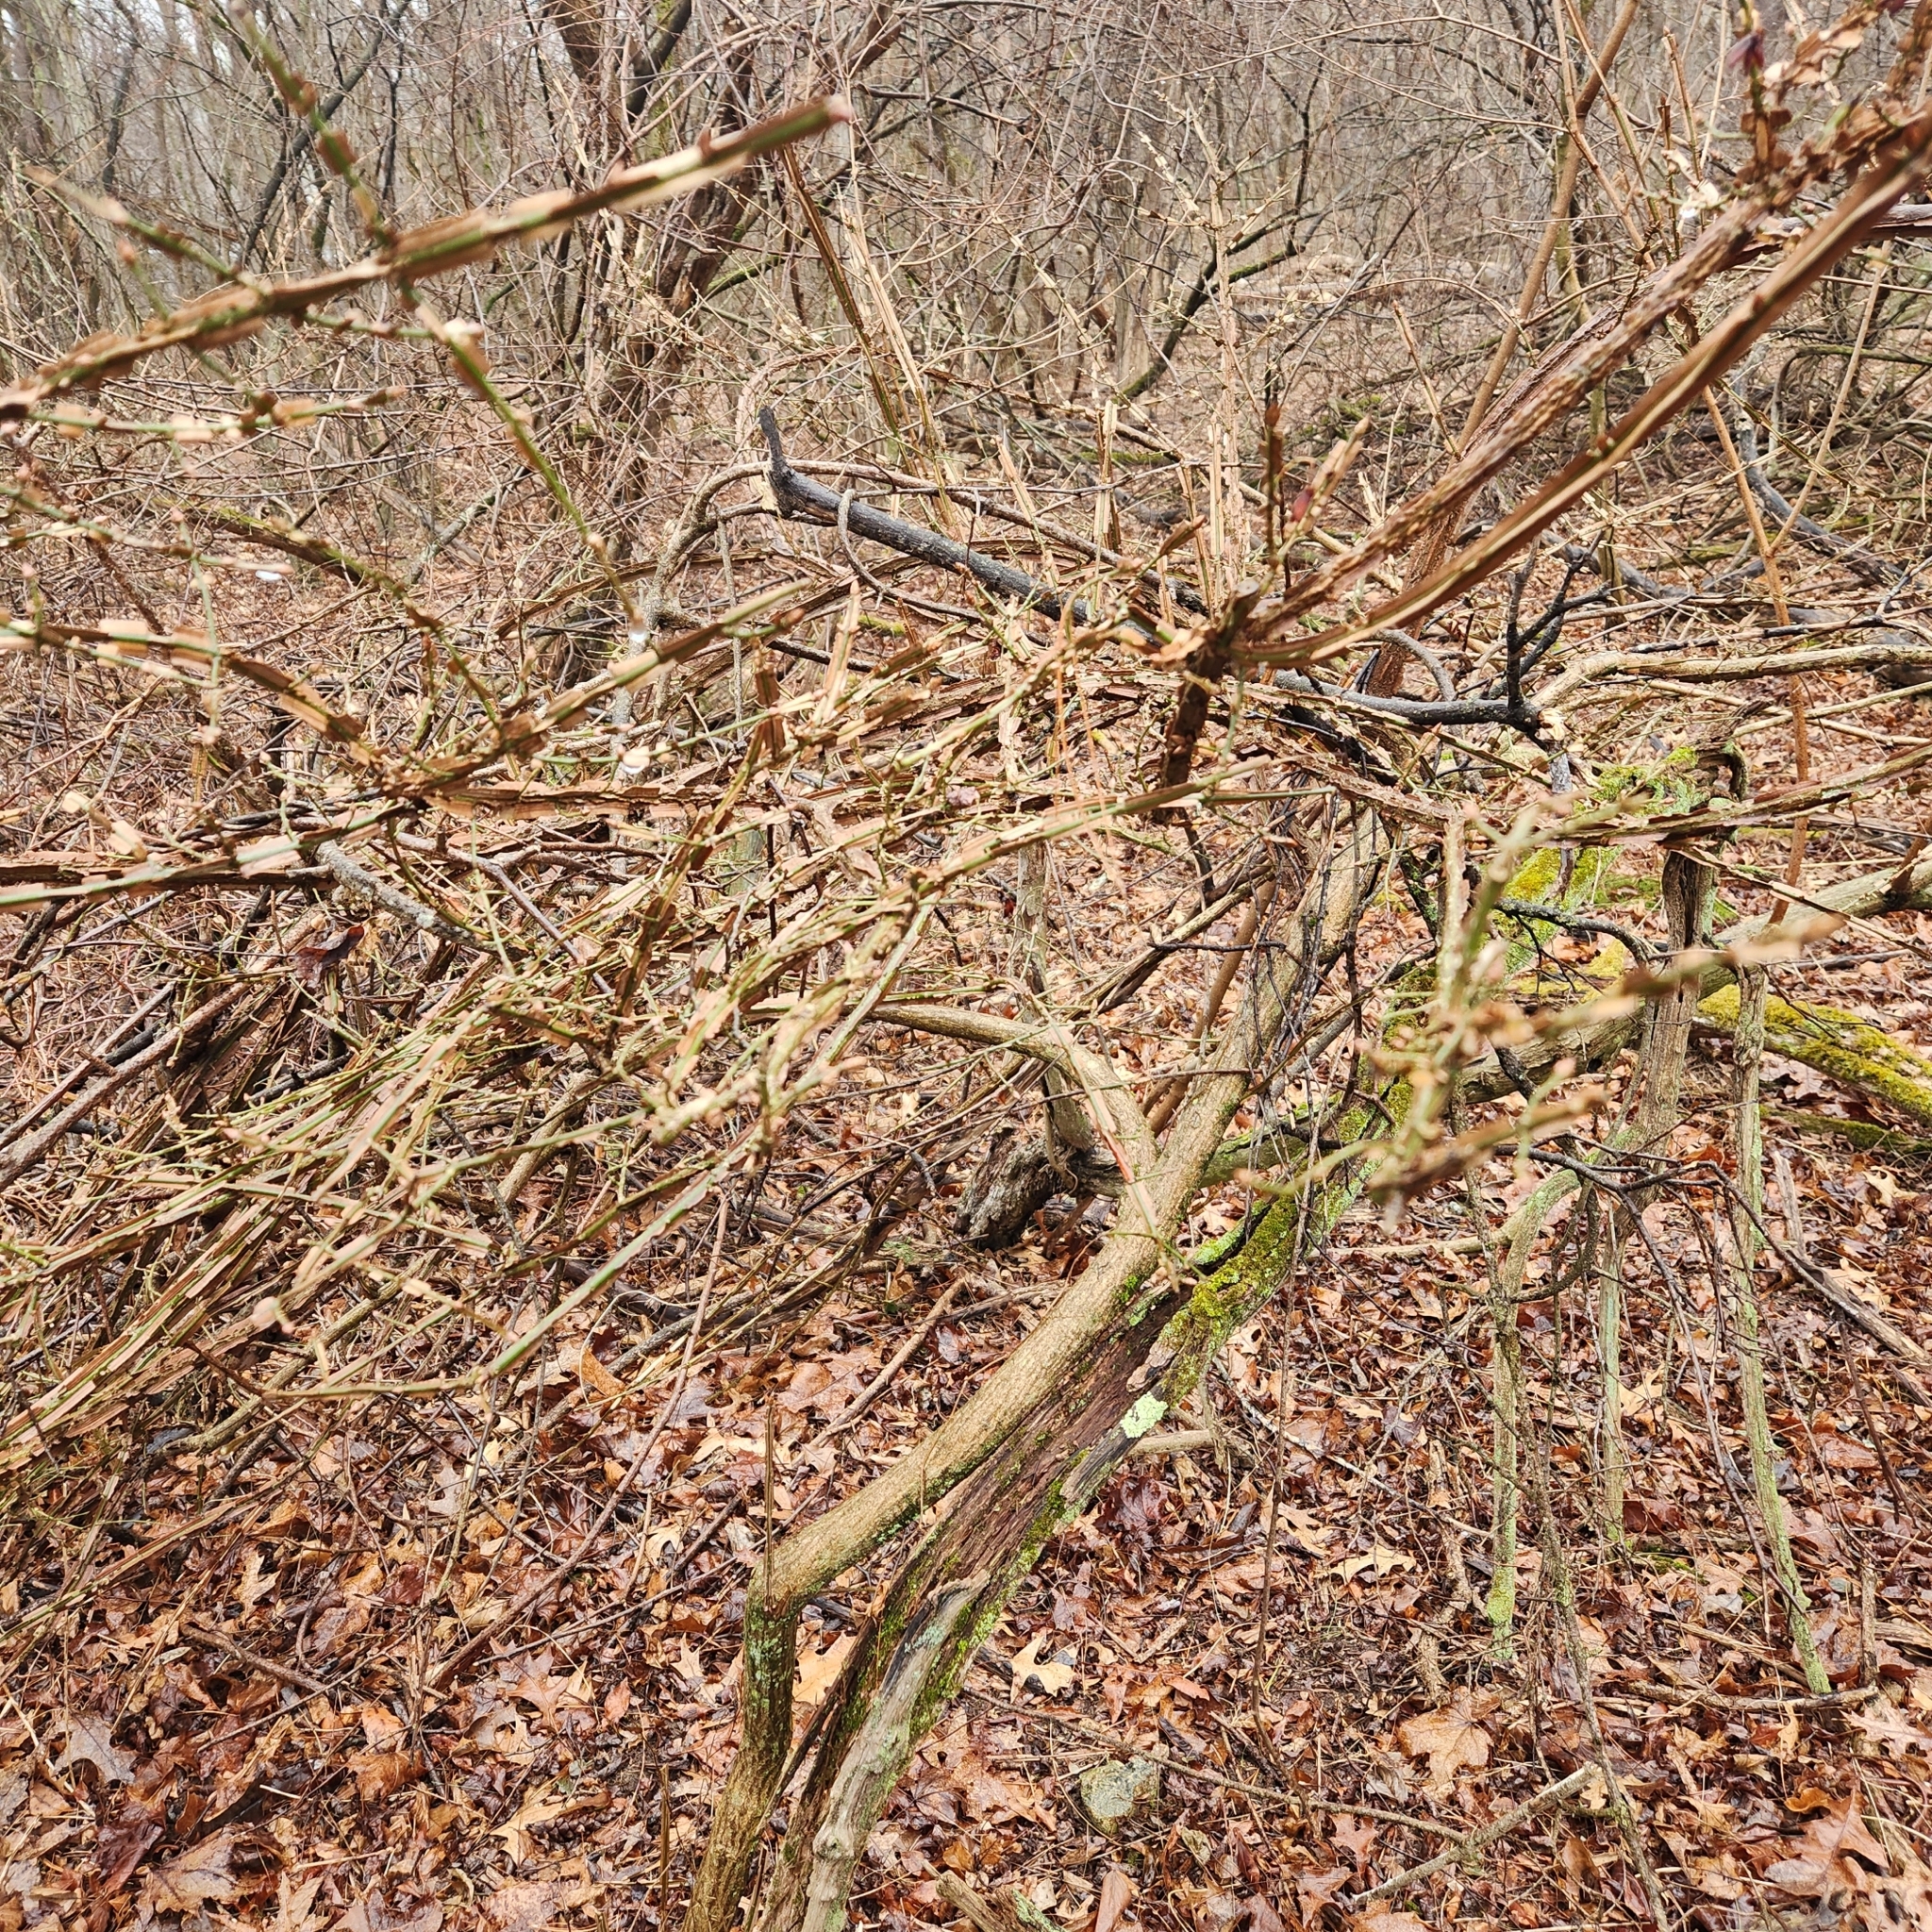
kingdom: Plantae
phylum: Tracheophyta
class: Magnoliopsida
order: Celastrales
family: Celastraceae
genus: Euonymus
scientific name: Euonymus alatus
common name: Winged euonymus
